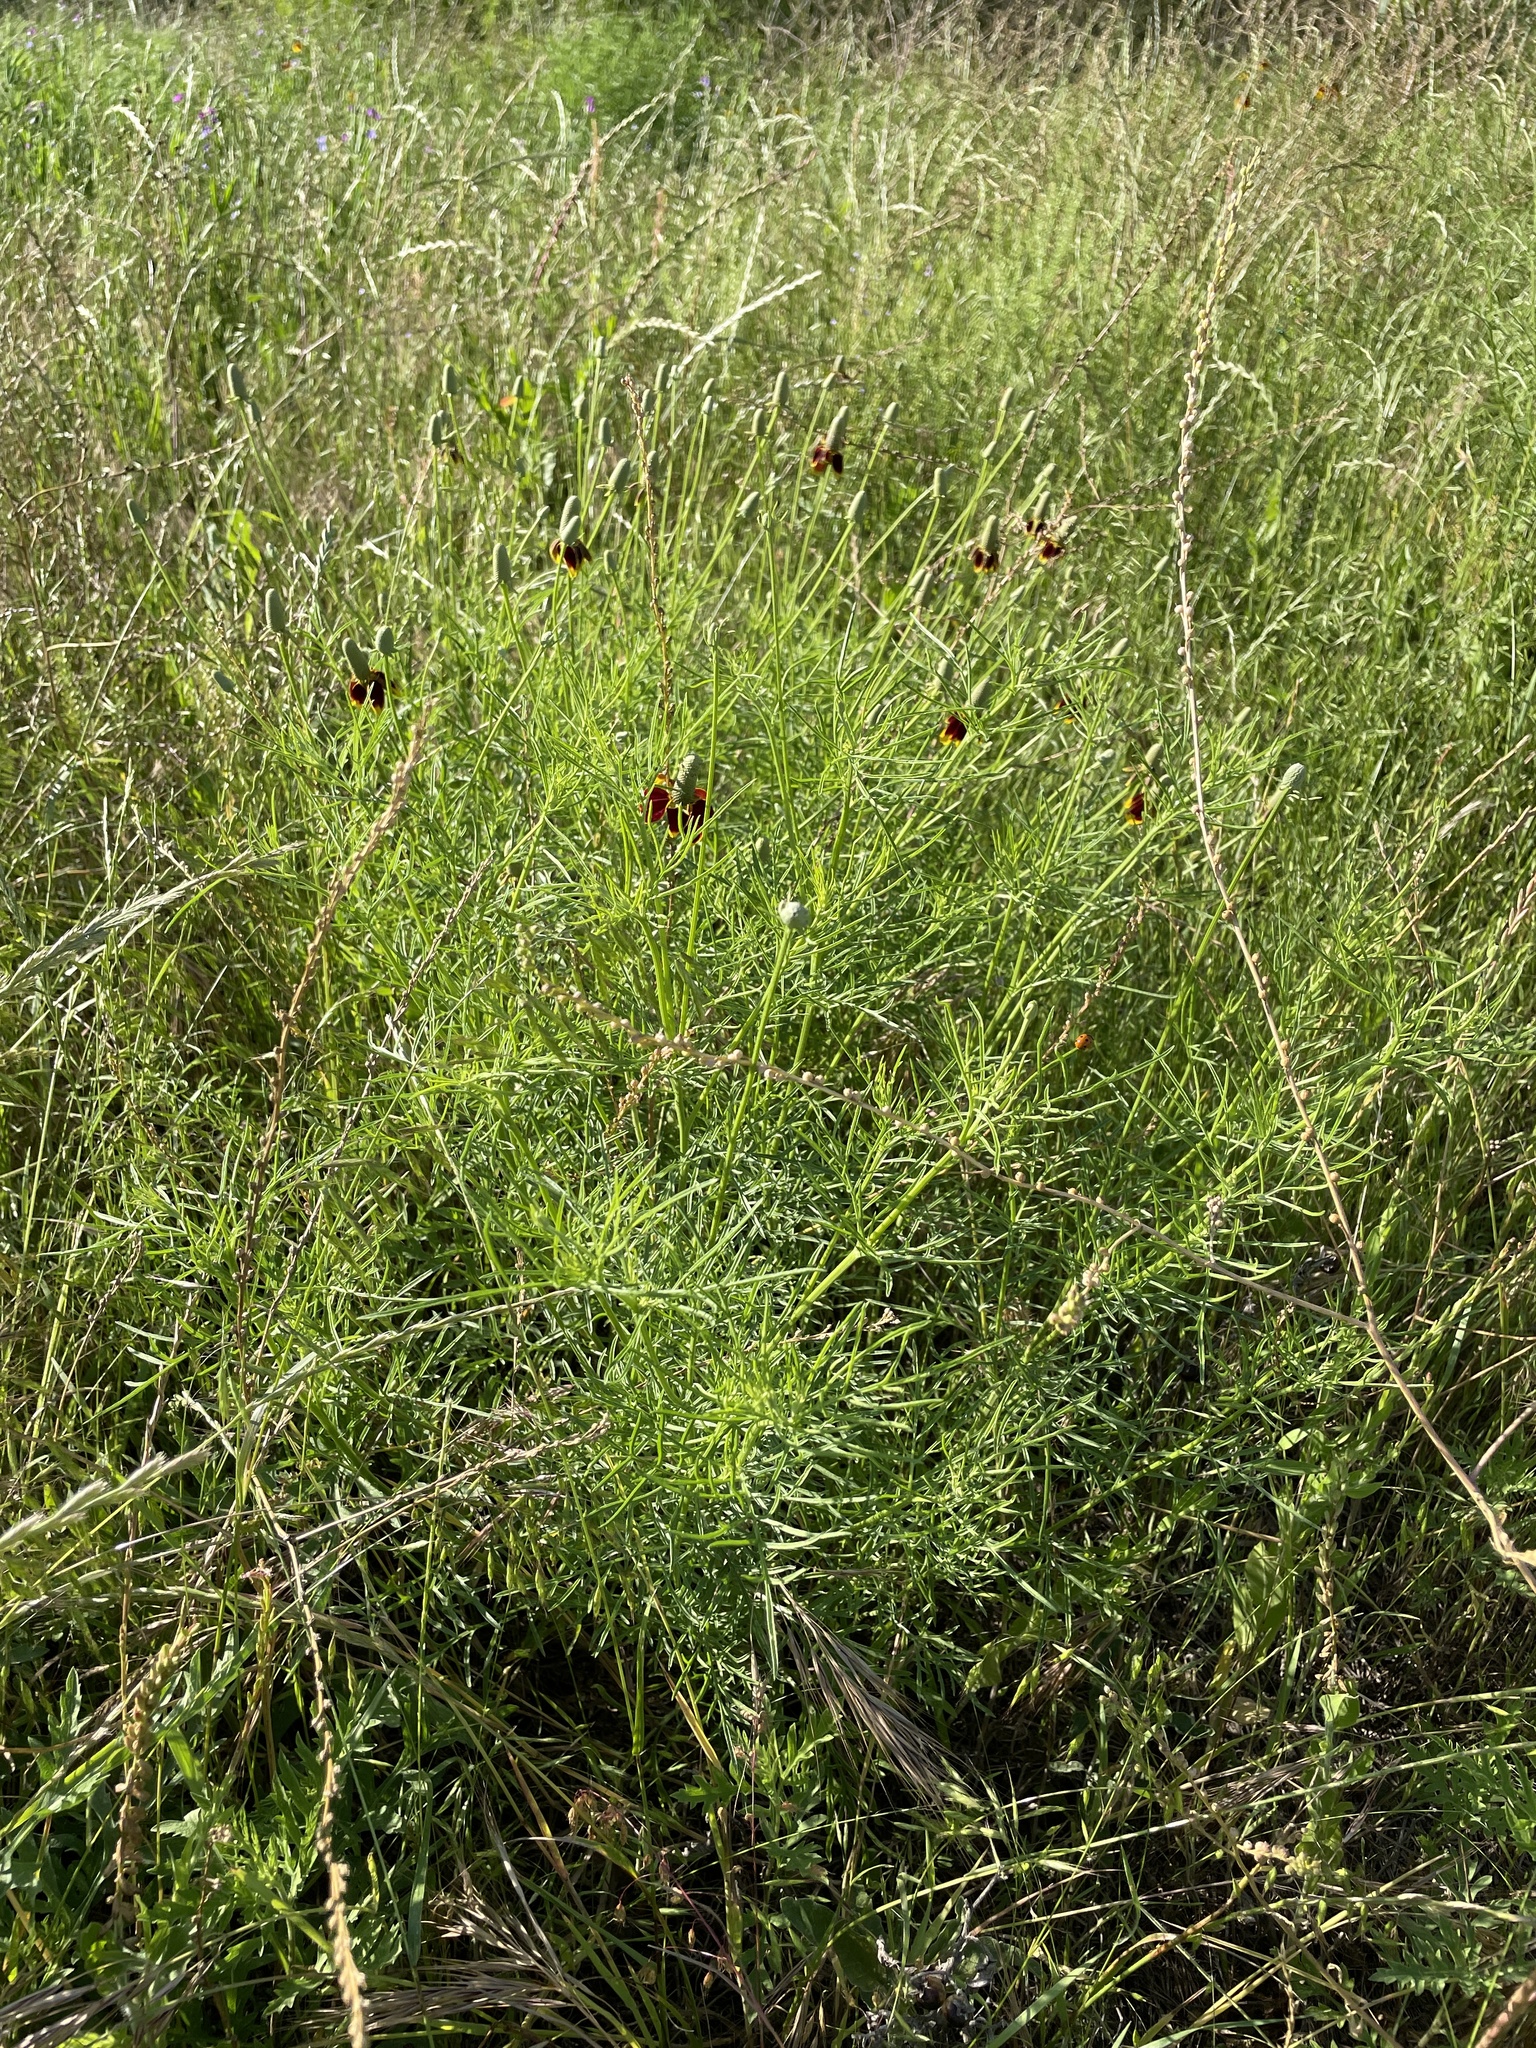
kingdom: Plantae
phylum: Tracheophyta
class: Magnoliopsida
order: Asterales
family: Asteraceae
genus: Ratibida
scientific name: Ratibida columnifera
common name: Prairie coneflower
